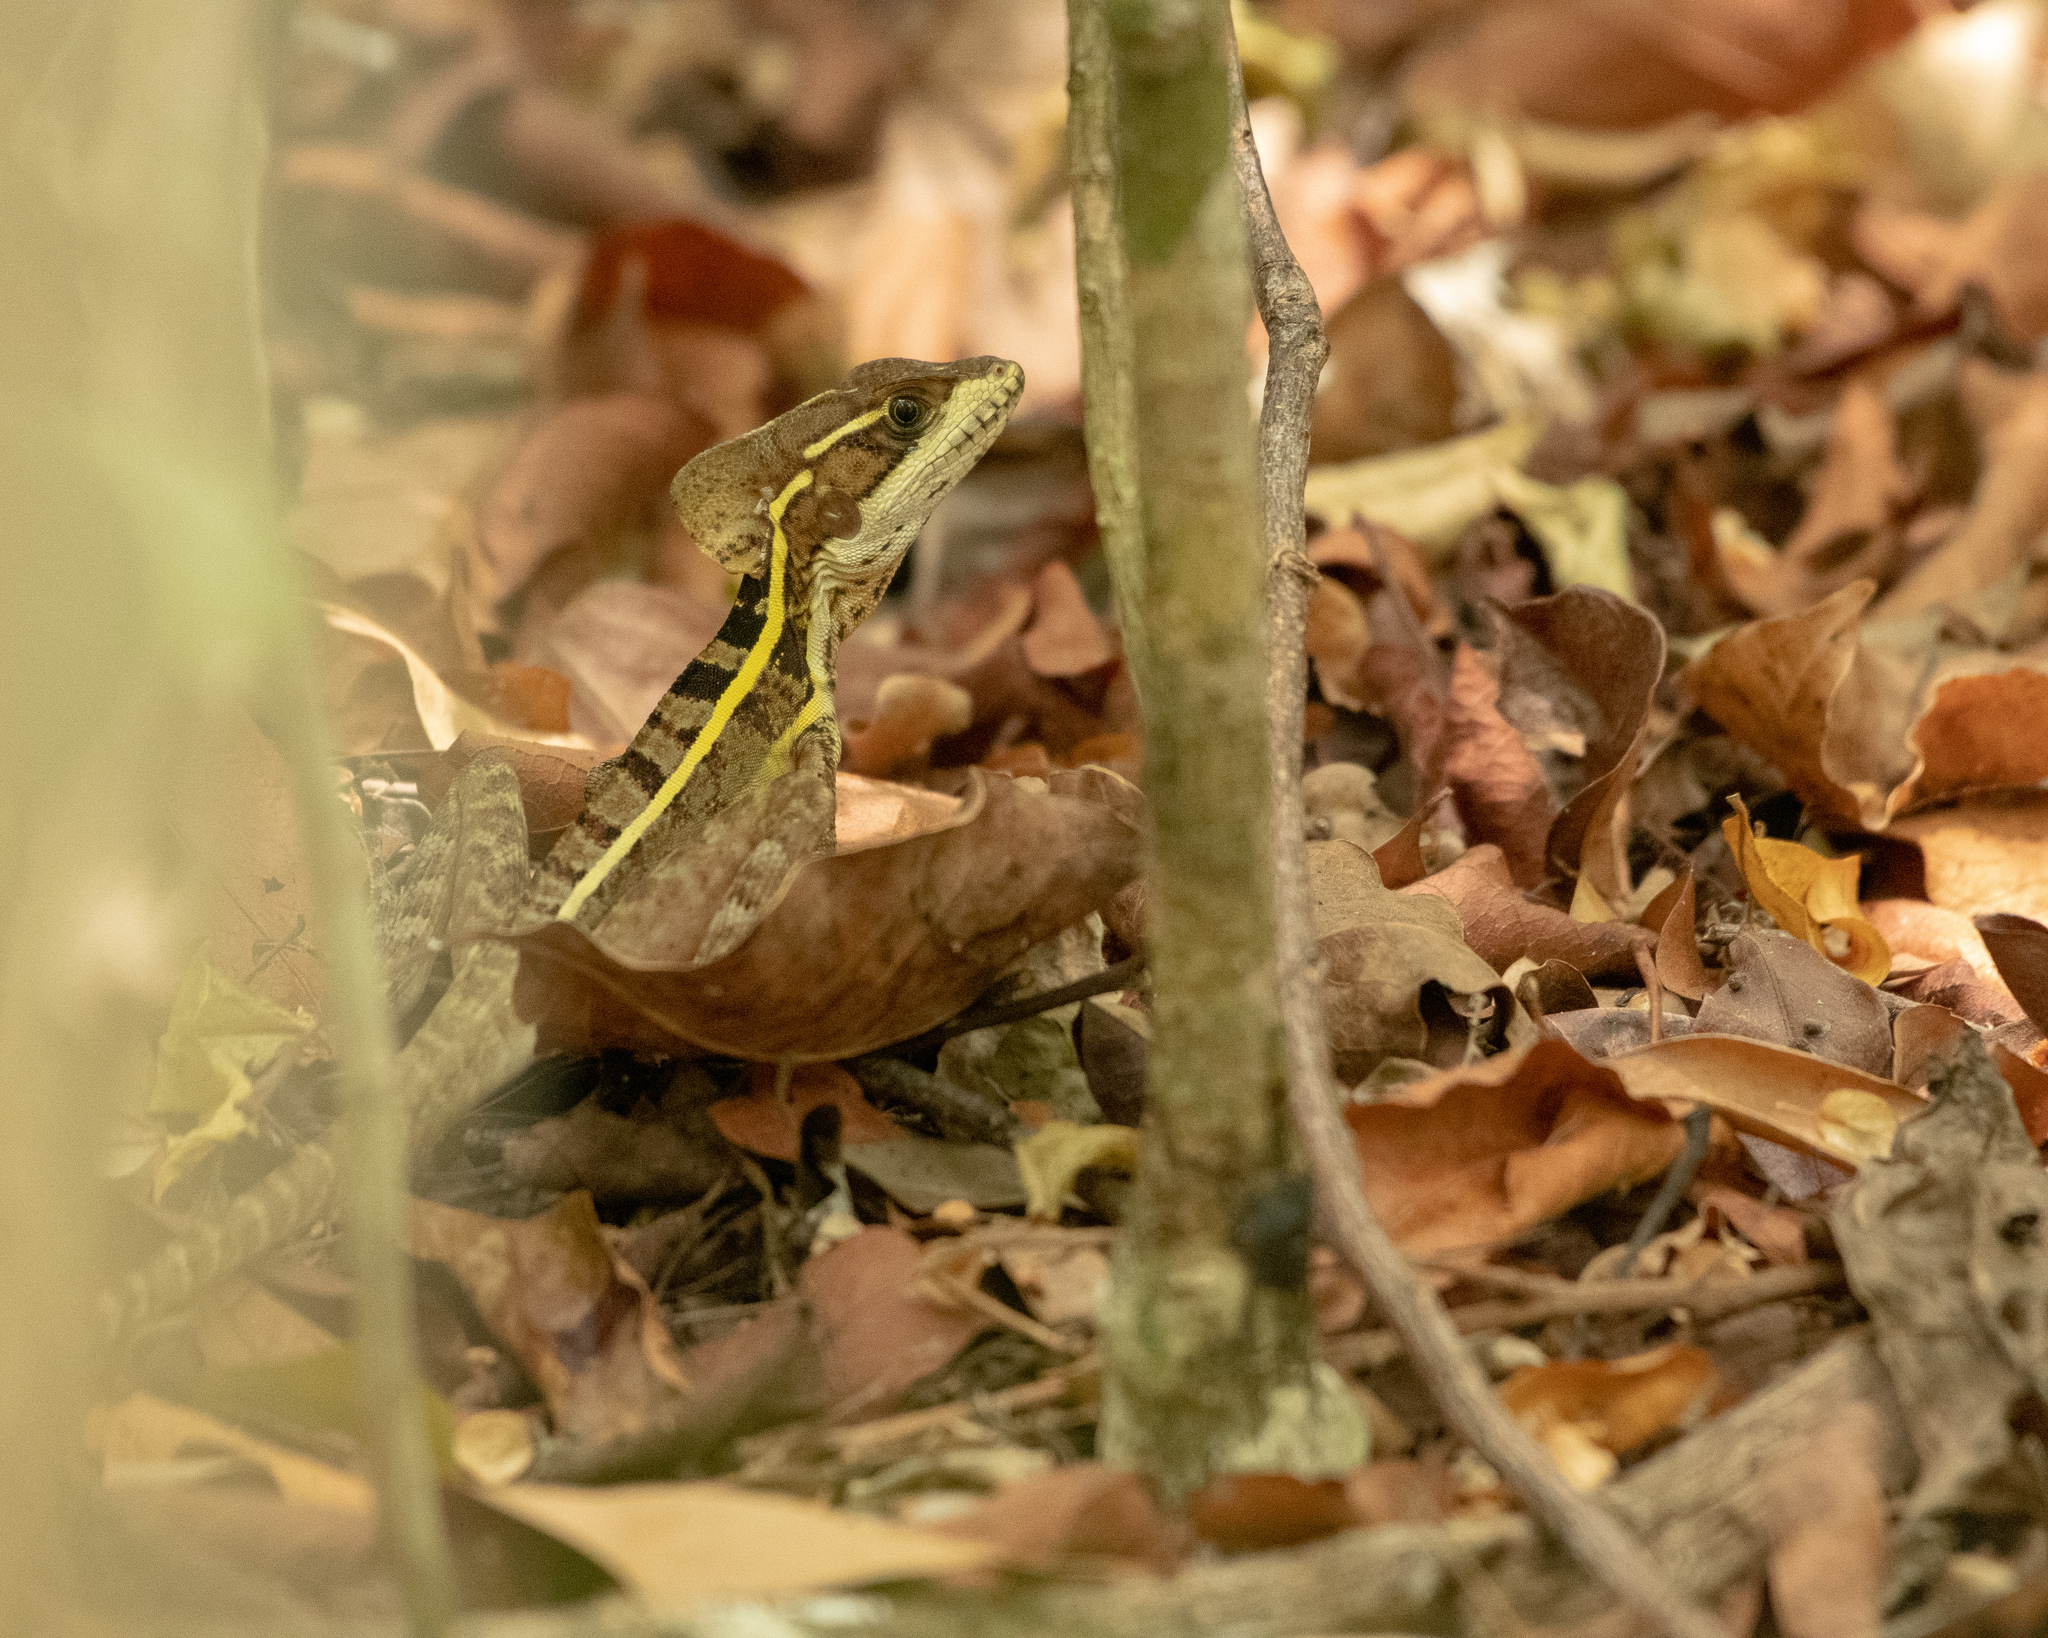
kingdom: Animalia
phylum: Chordata
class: Squamata
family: Corytophanidae
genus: Basiliscus
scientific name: Basiliscus vittatus
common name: Brown basilisk
